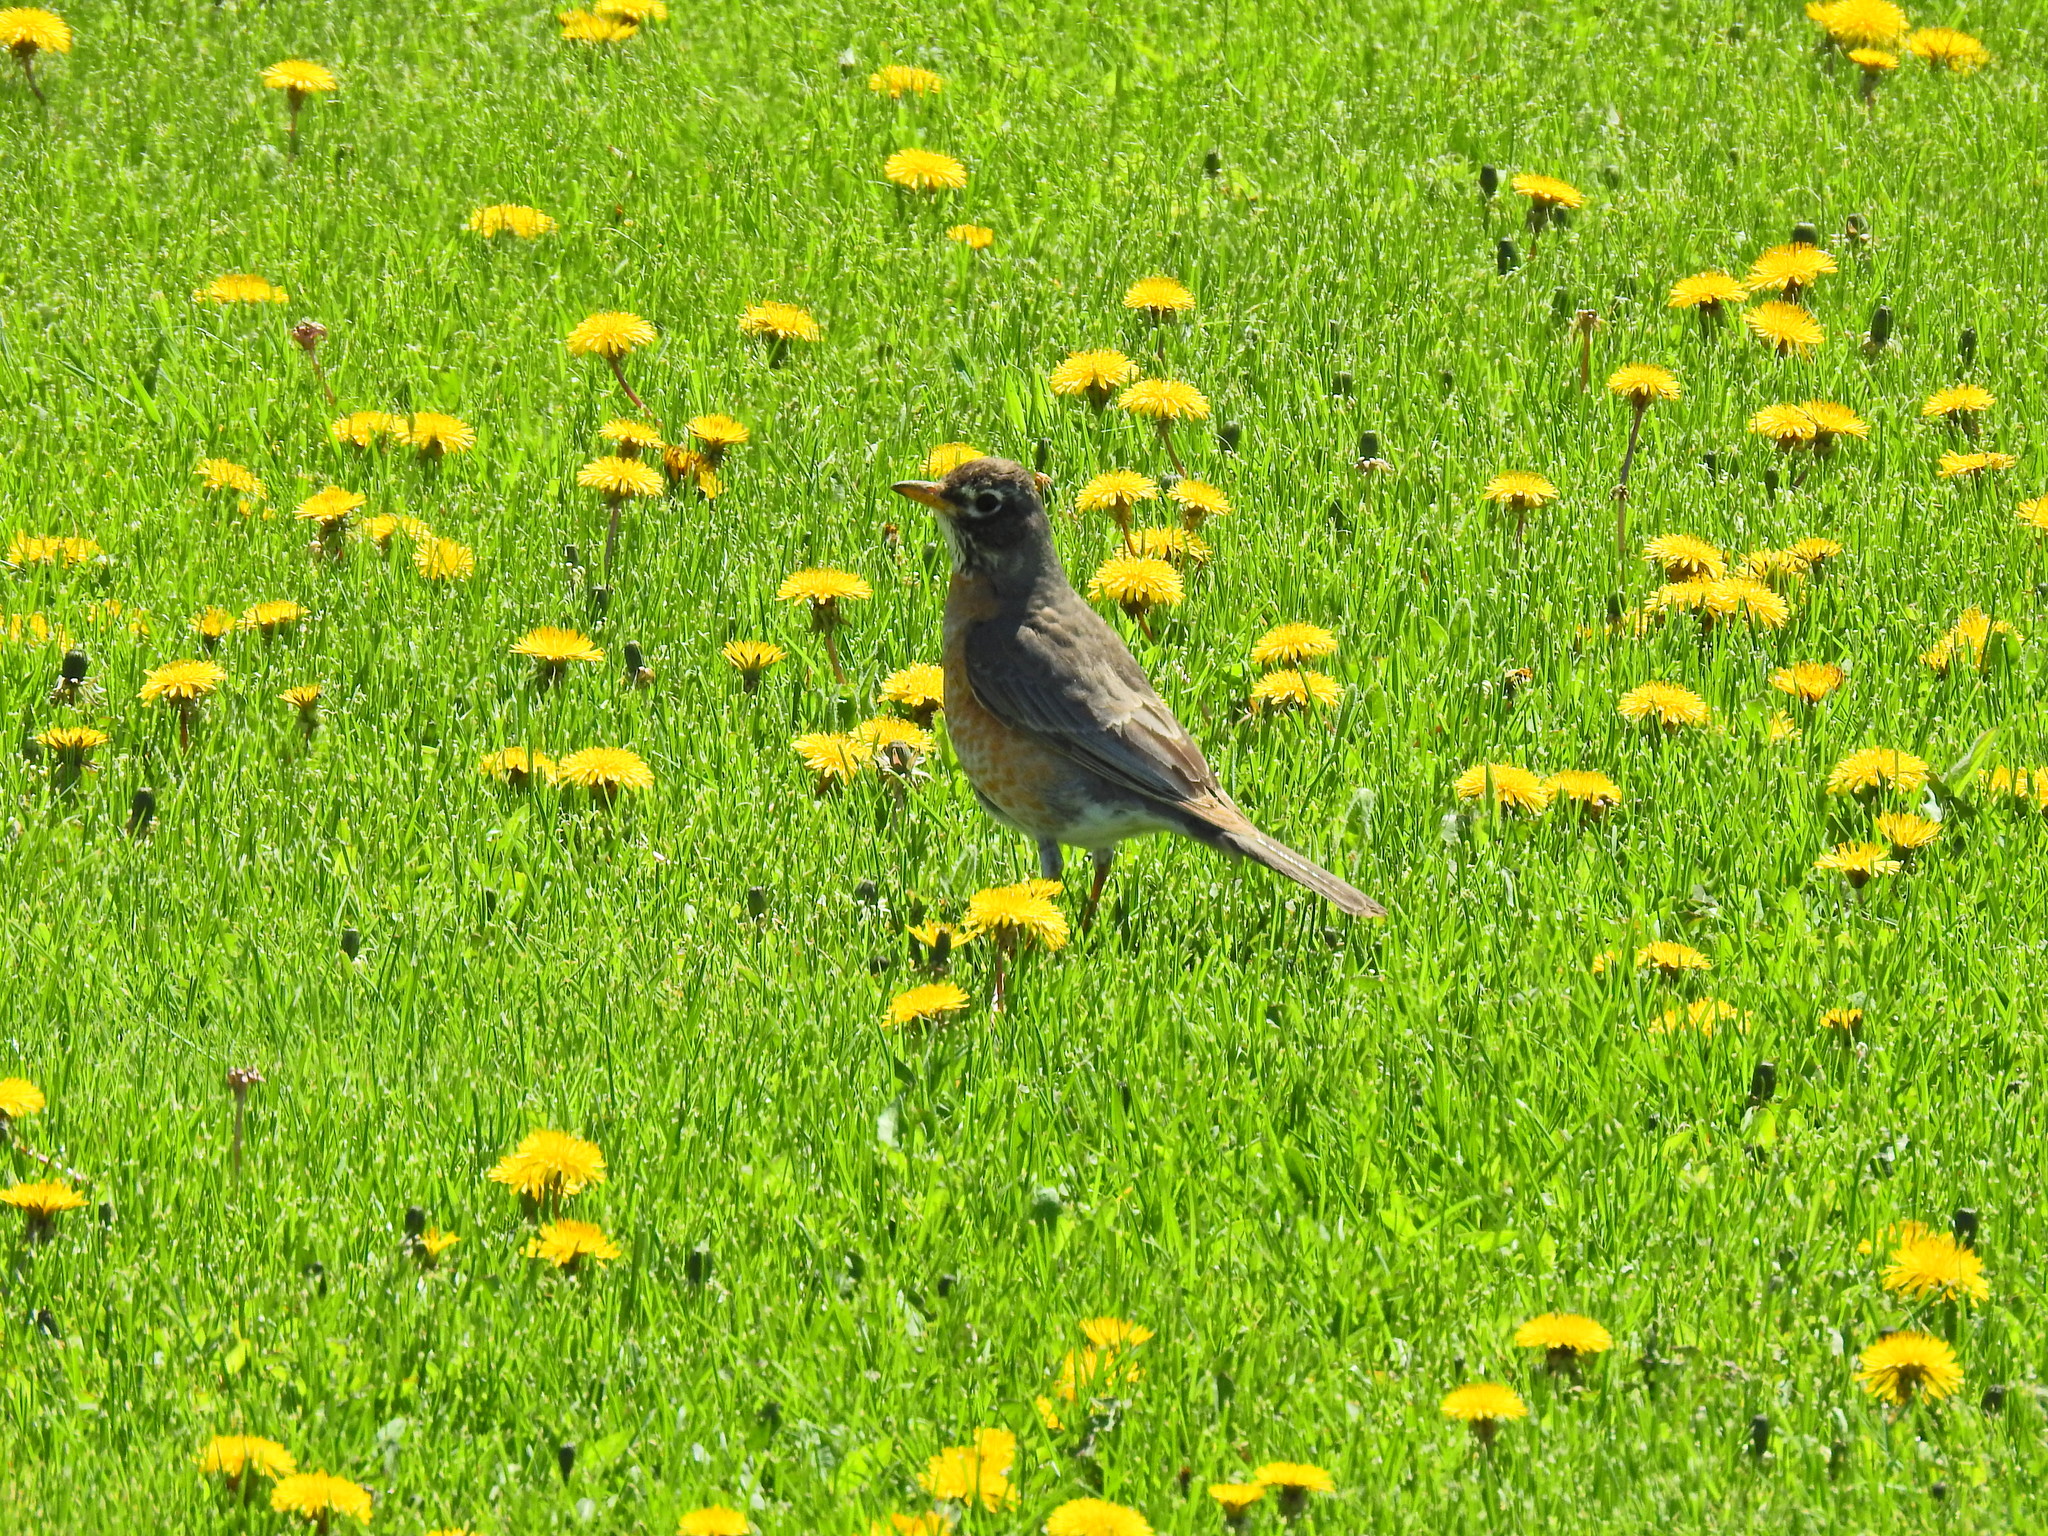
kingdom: Animalia
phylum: Chordata
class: Aves
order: Passeriformes
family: Turdidae
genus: Turdus
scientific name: Turdus migratorius
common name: American robin
